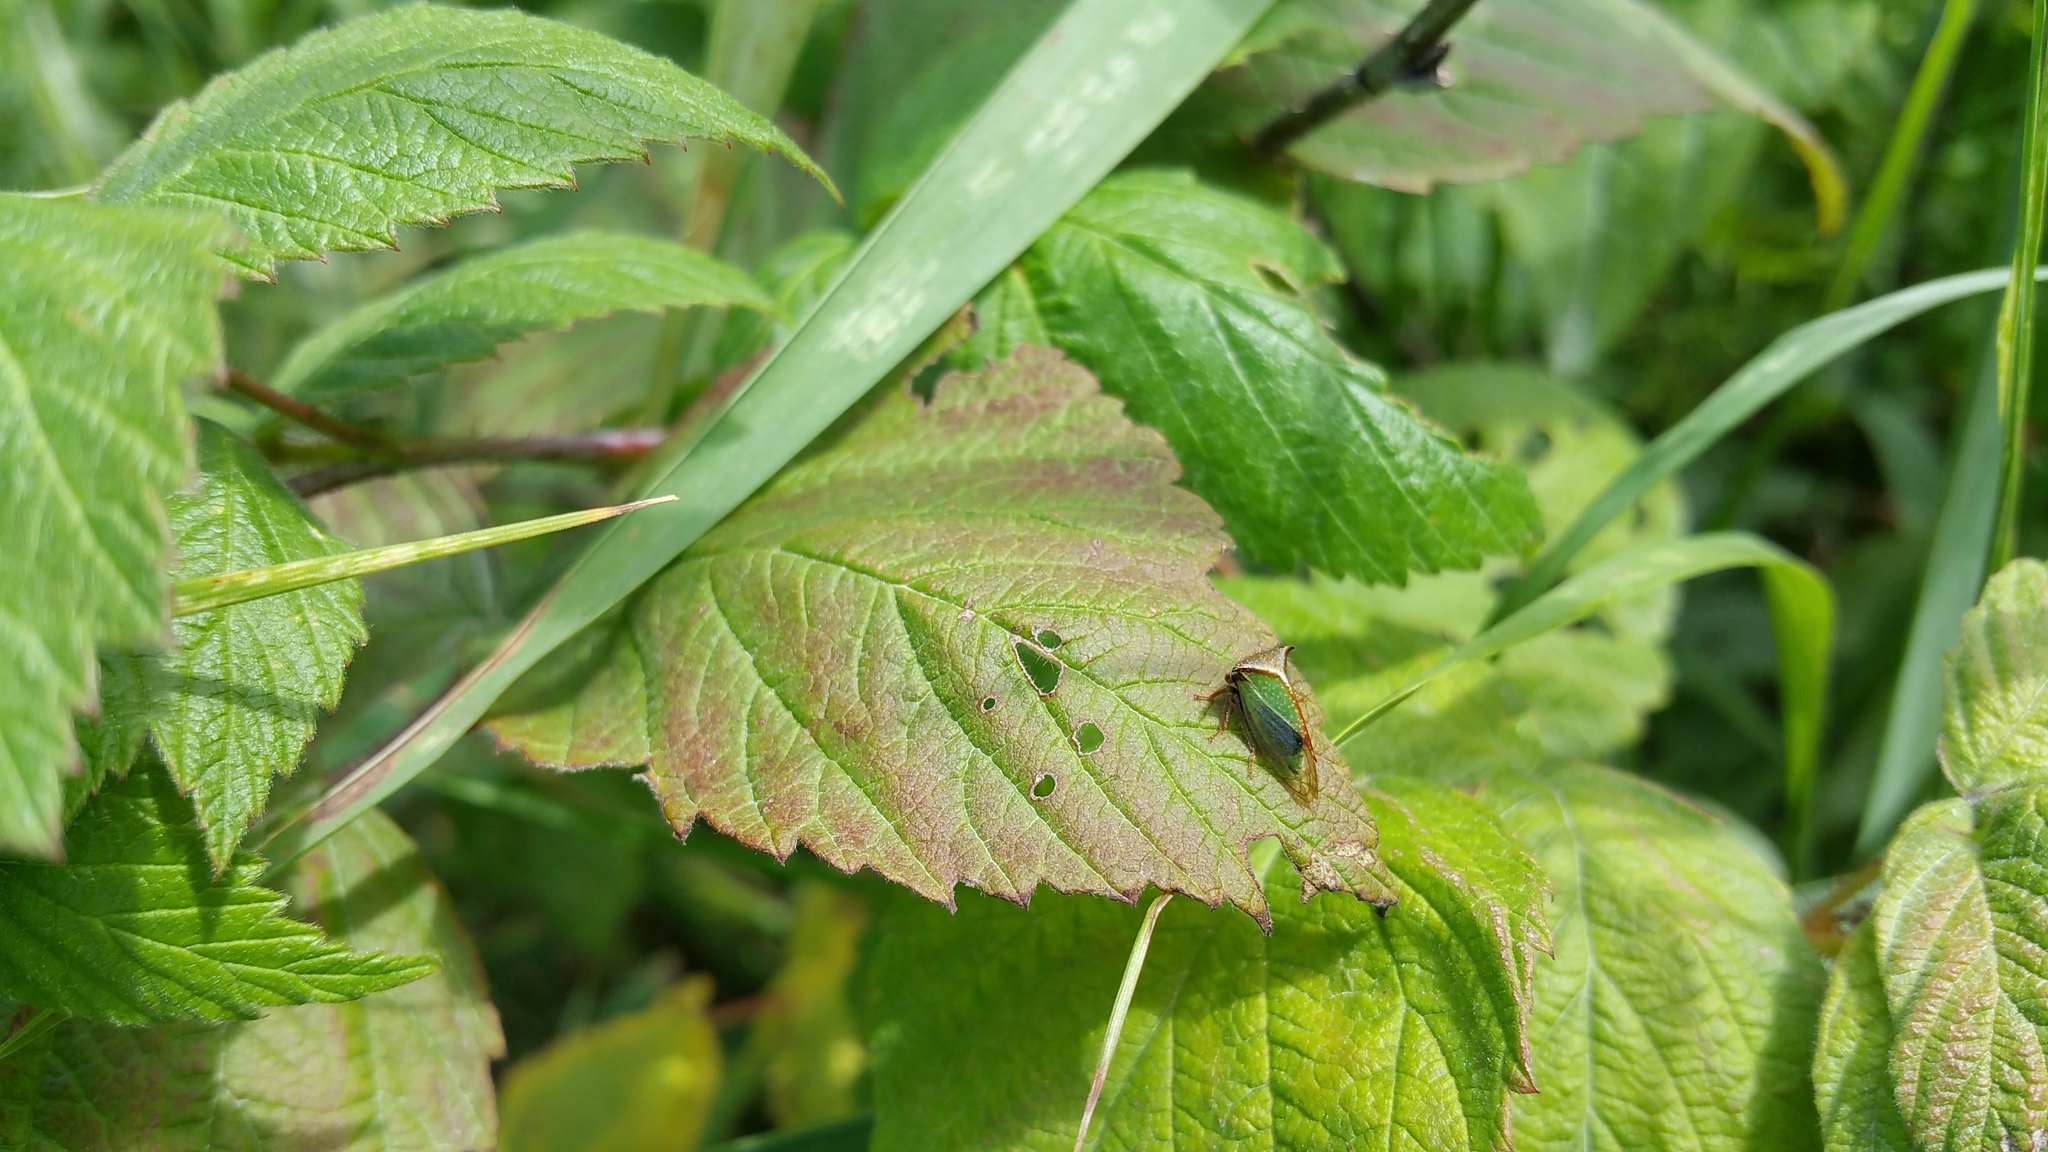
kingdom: Animalia
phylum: Arthropoda
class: Insecta
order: Hemiptera
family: Membracidae
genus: Stictocephala
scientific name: Stictocephala basalis
